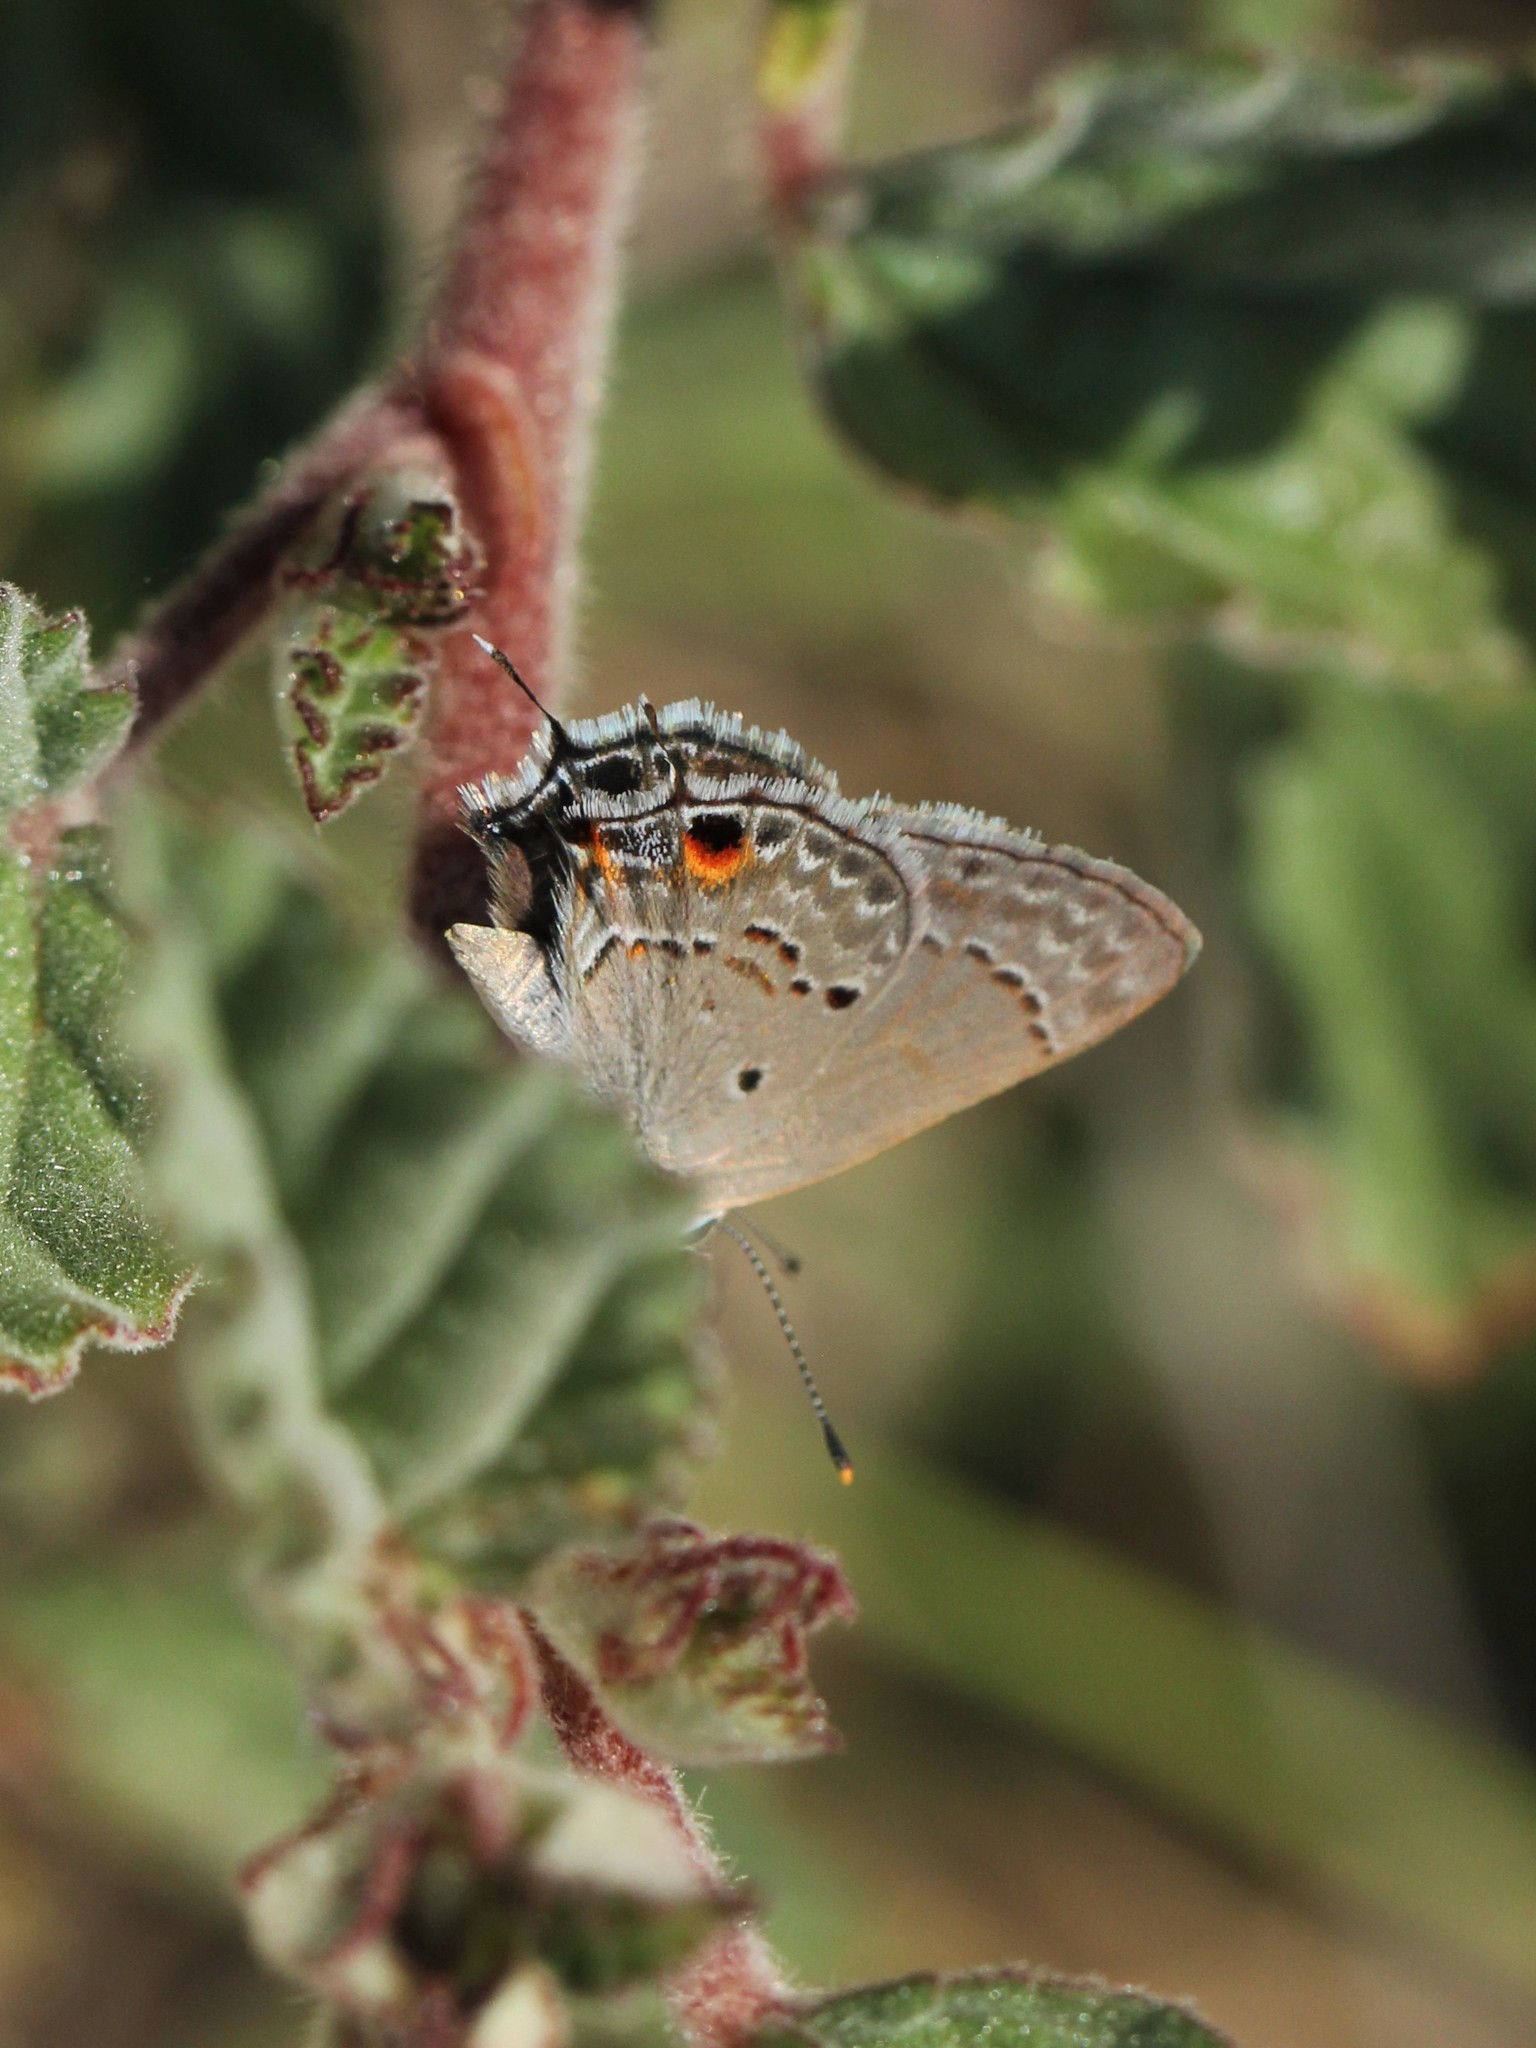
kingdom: Animalia
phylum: Arthropoda
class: Insecta
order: Lepidoptera
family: Lycaenidae
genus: Callicista
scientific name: Callicista columella
